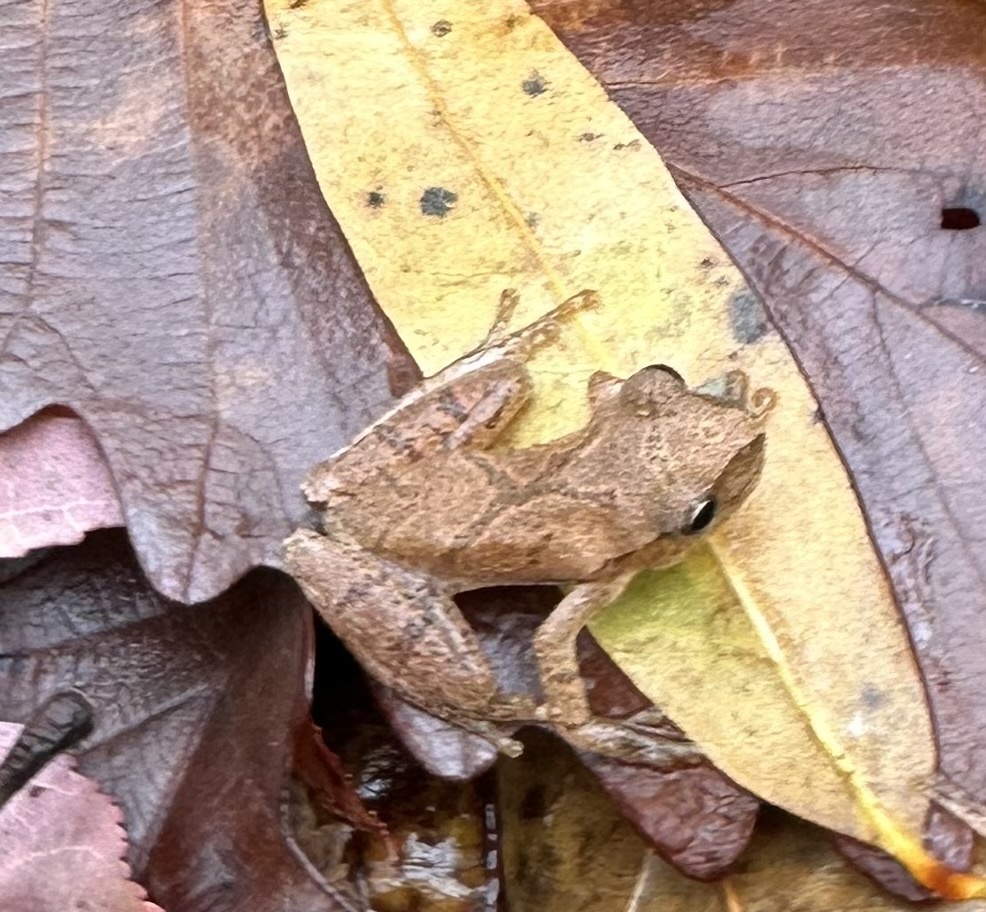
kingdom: Animalia
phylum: Chordata
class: Amphibia
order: Anura
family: Hylidae
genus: Pseudacris
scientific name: Pseudacris crucifer
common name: Spring peeper
